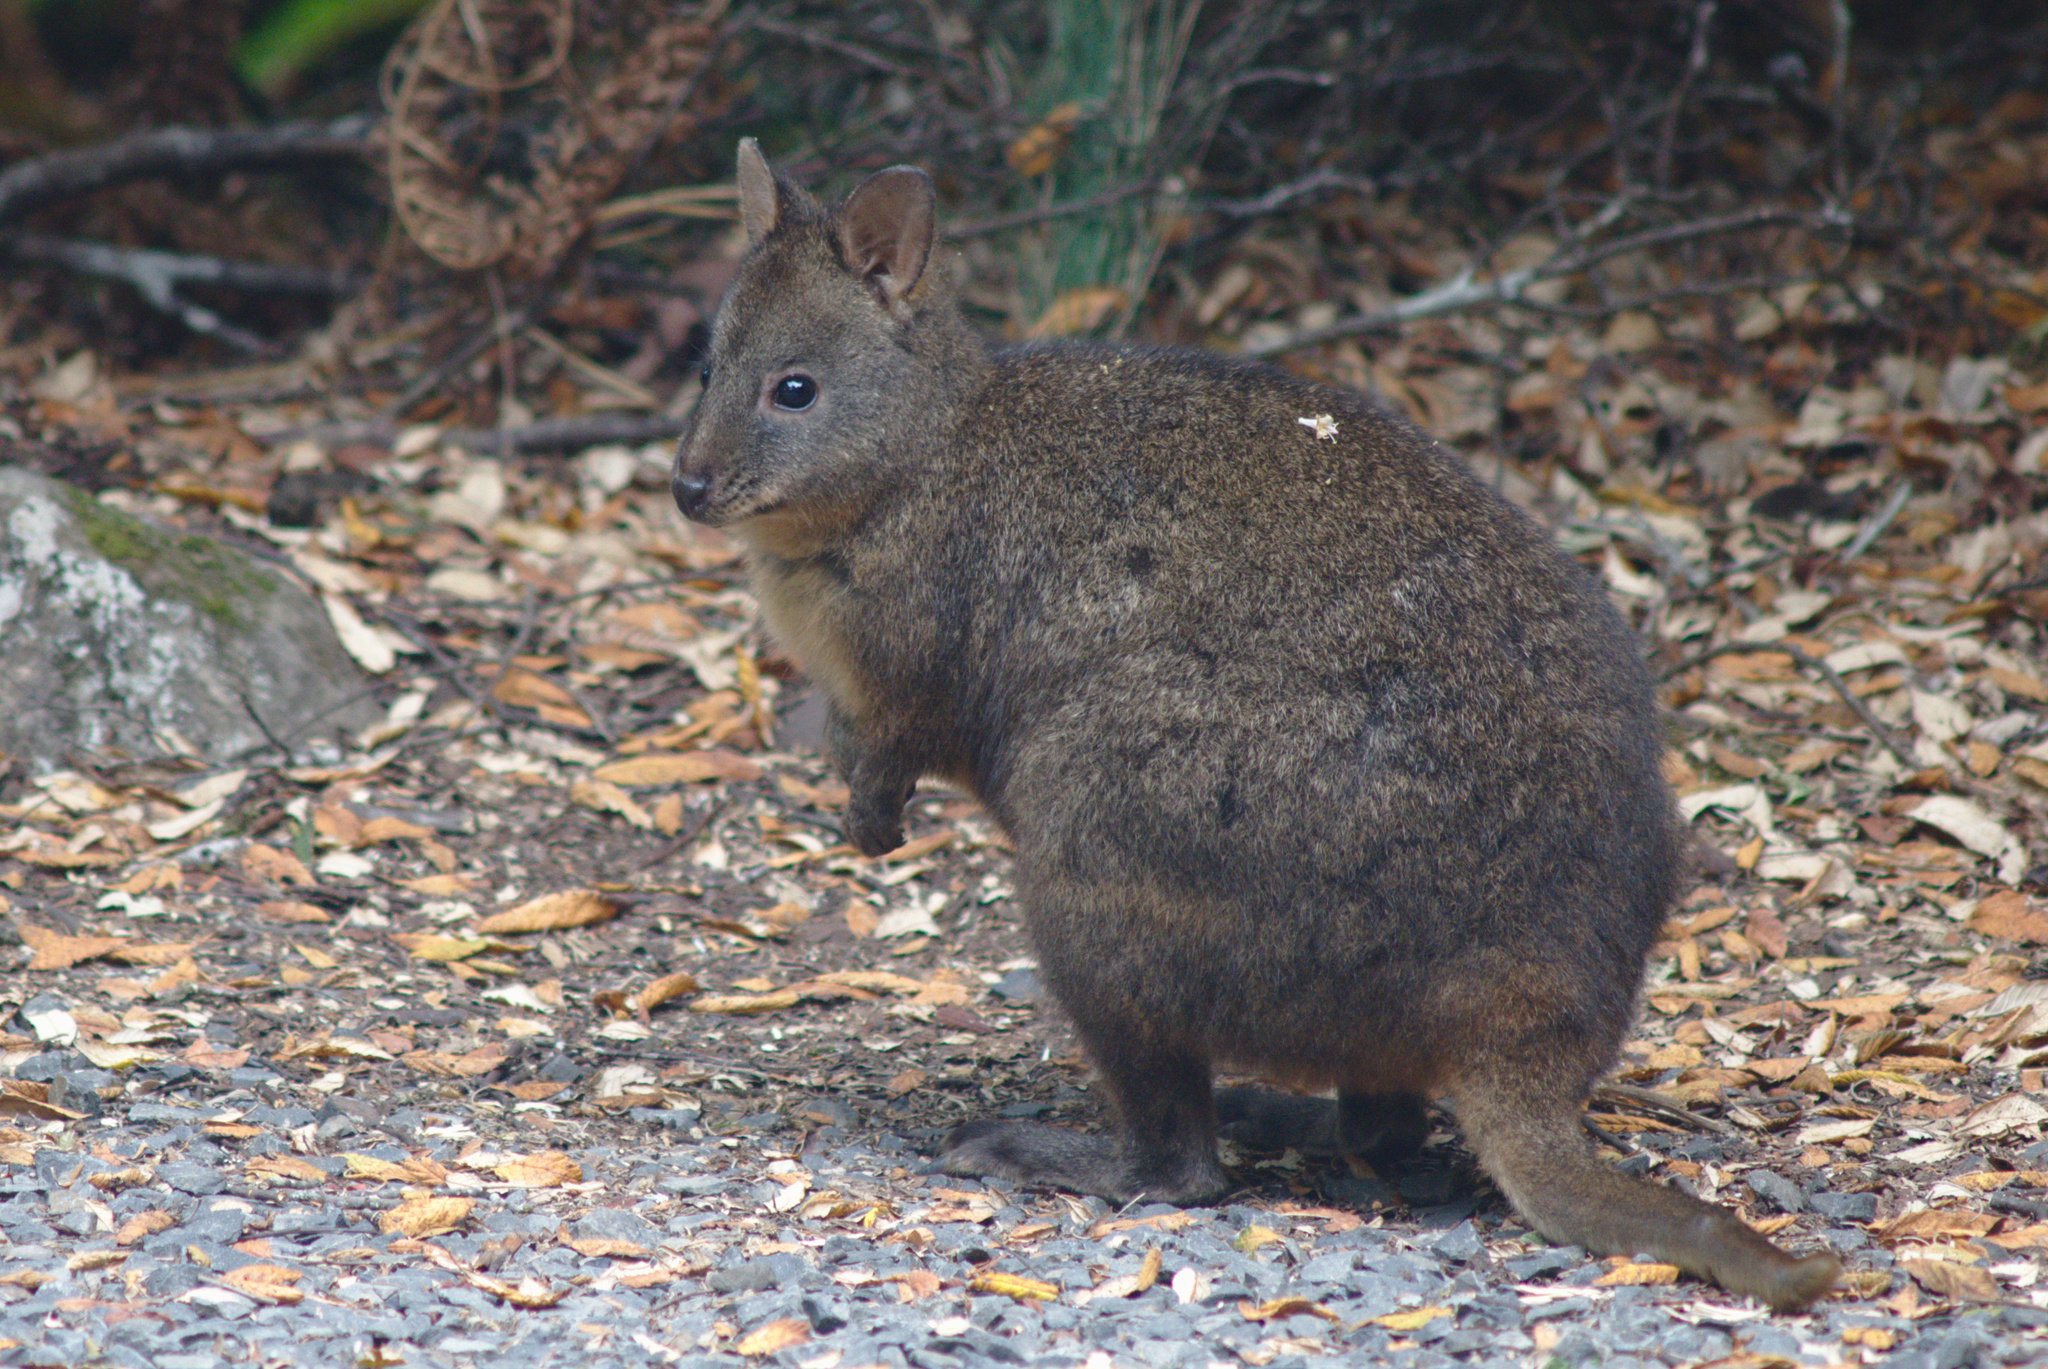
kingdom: Animalia
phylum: Chordata
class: Mammalia
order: Diprotodontia
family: Macropodidae
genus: Thylogale
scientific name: Thylogale billardierii
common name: Tasmanian pademelon
